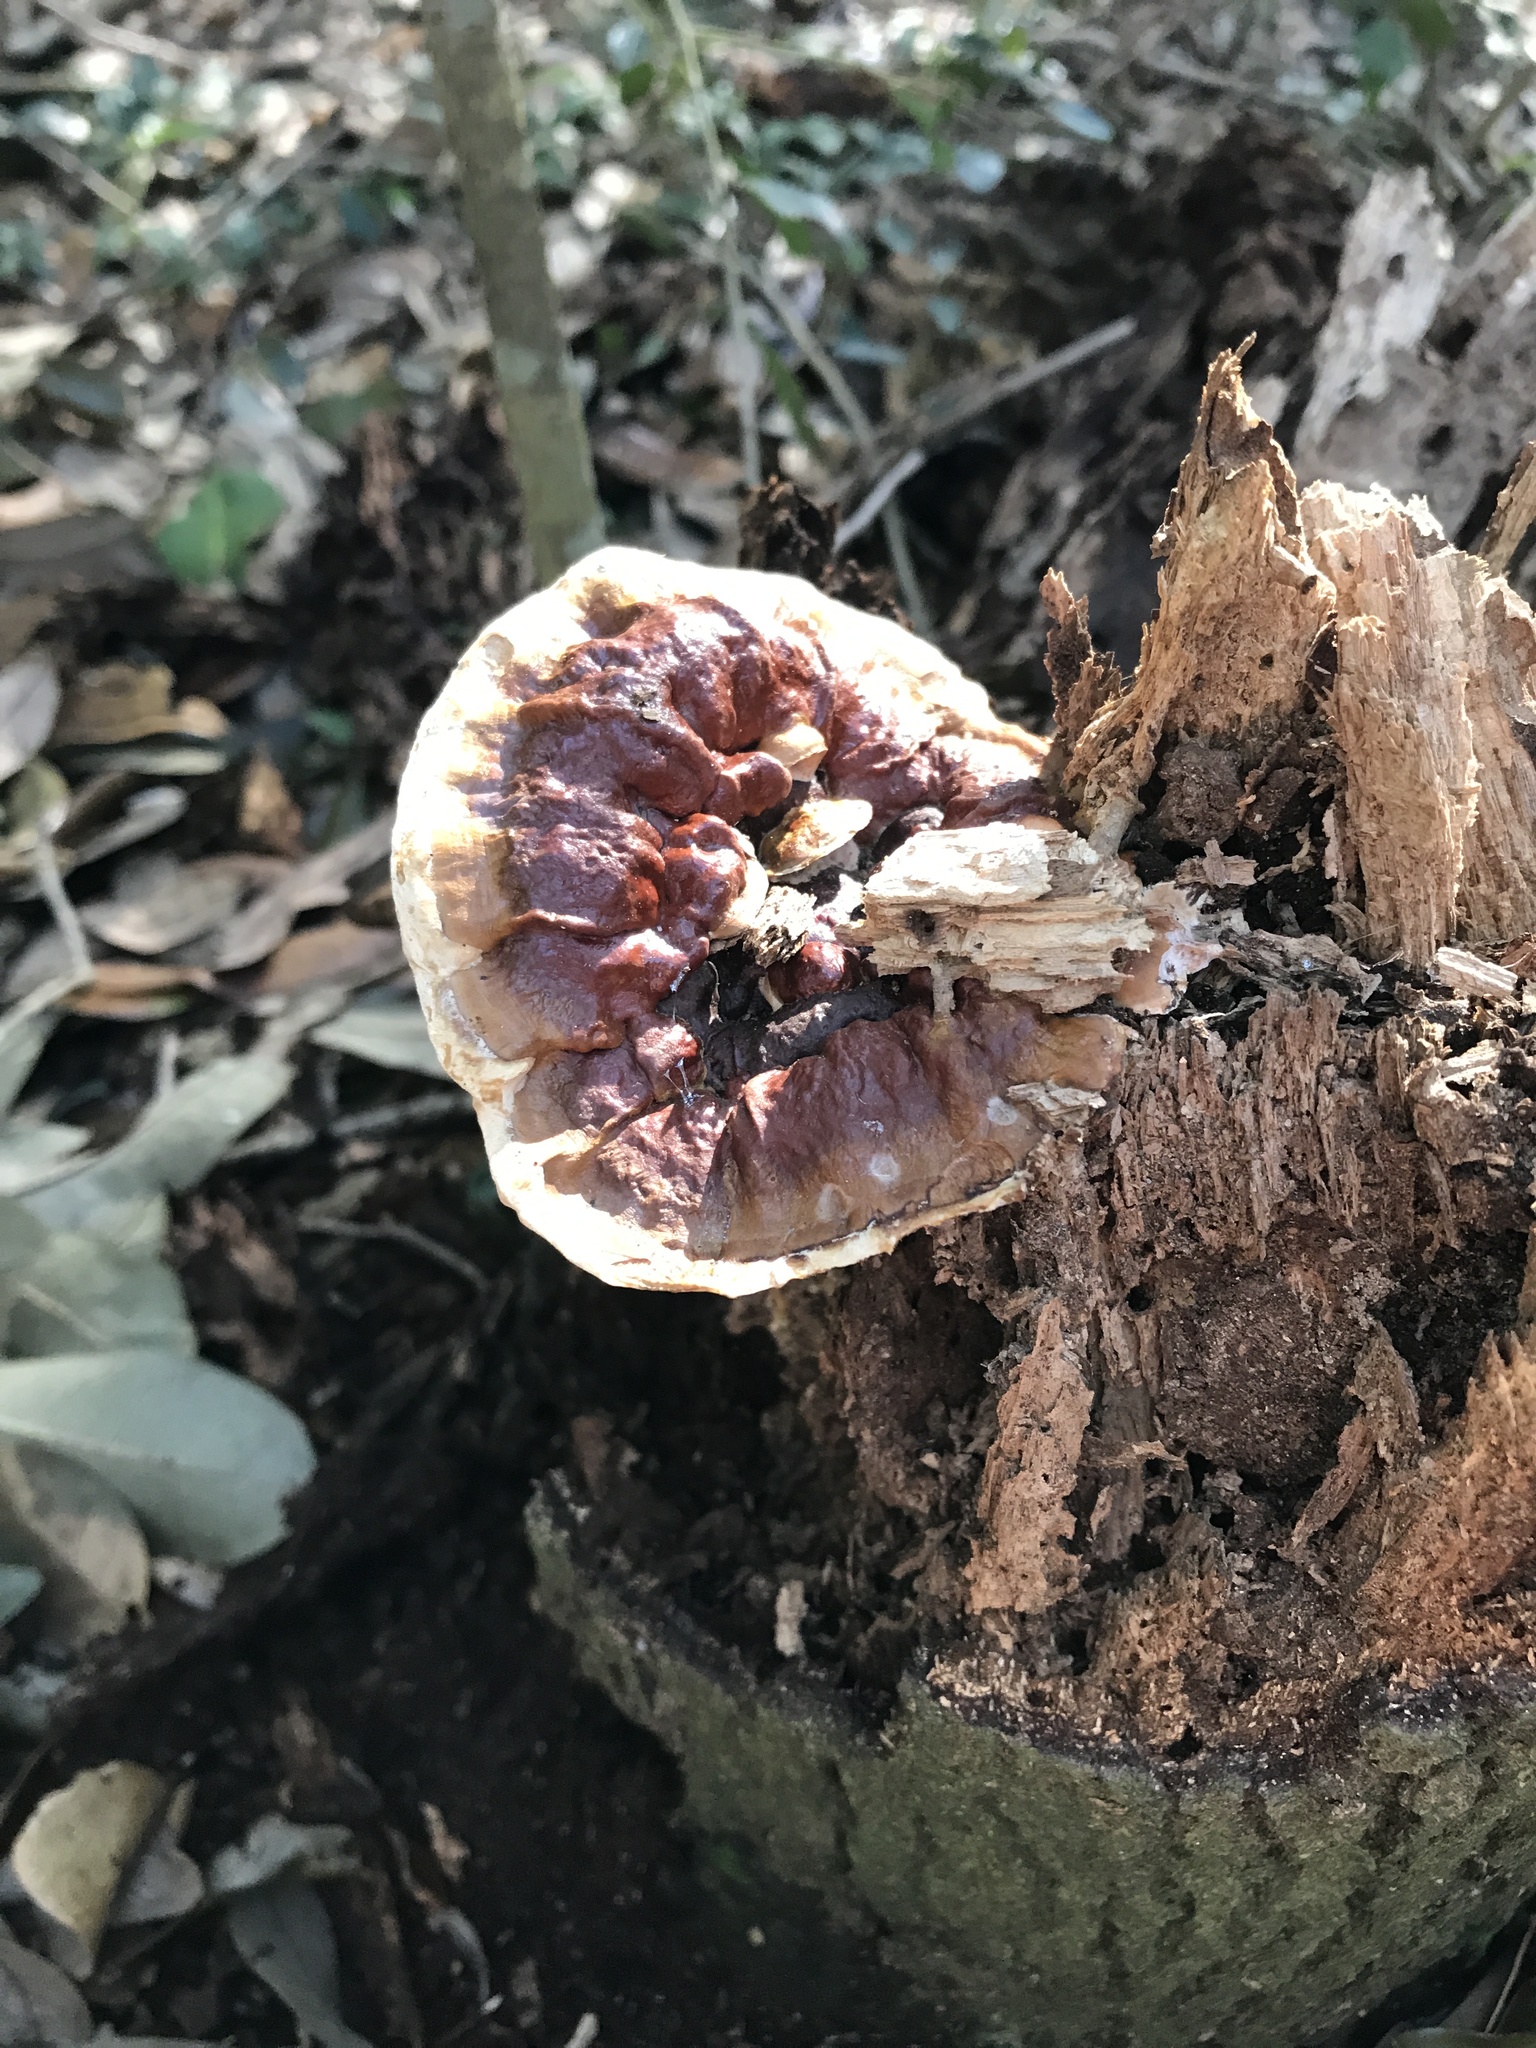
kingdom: Fungi
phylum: Basidiomycota
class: Agaricomycetes
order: Polyporales
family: Polyporaceae
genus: Ganoderma
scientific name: Ganoderma resinaceum
